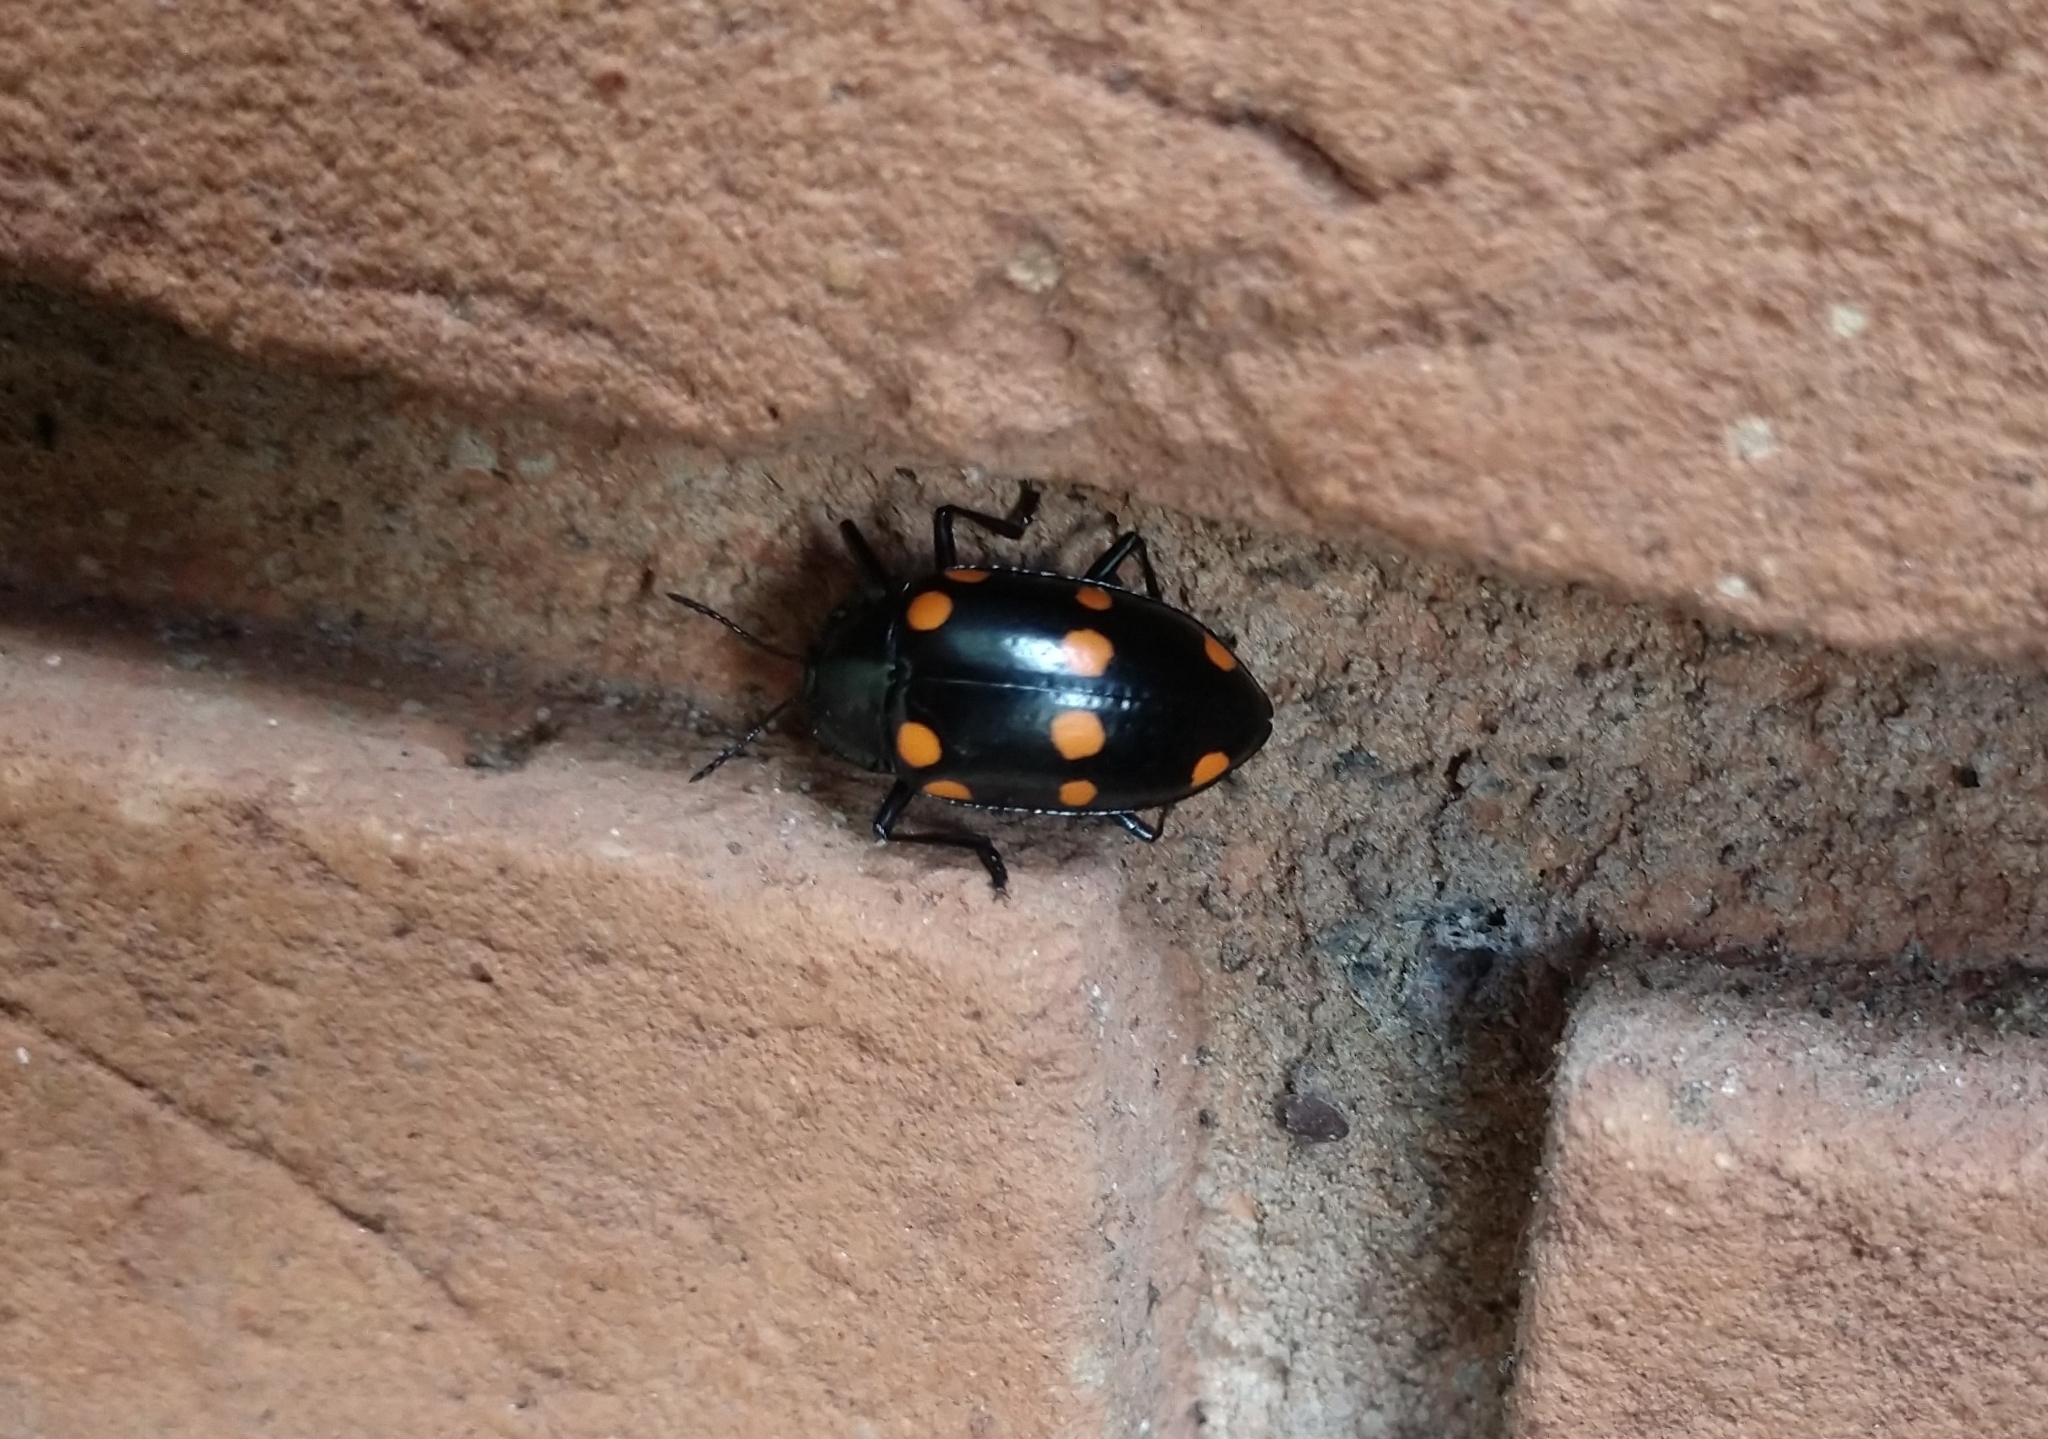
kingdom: Animalia
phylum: Arthropoda
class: Insecta
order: Coleoptera
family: Erotylidae
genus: Scaphidomorphus
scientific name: Scaphidomorphus quinquepunctatus
